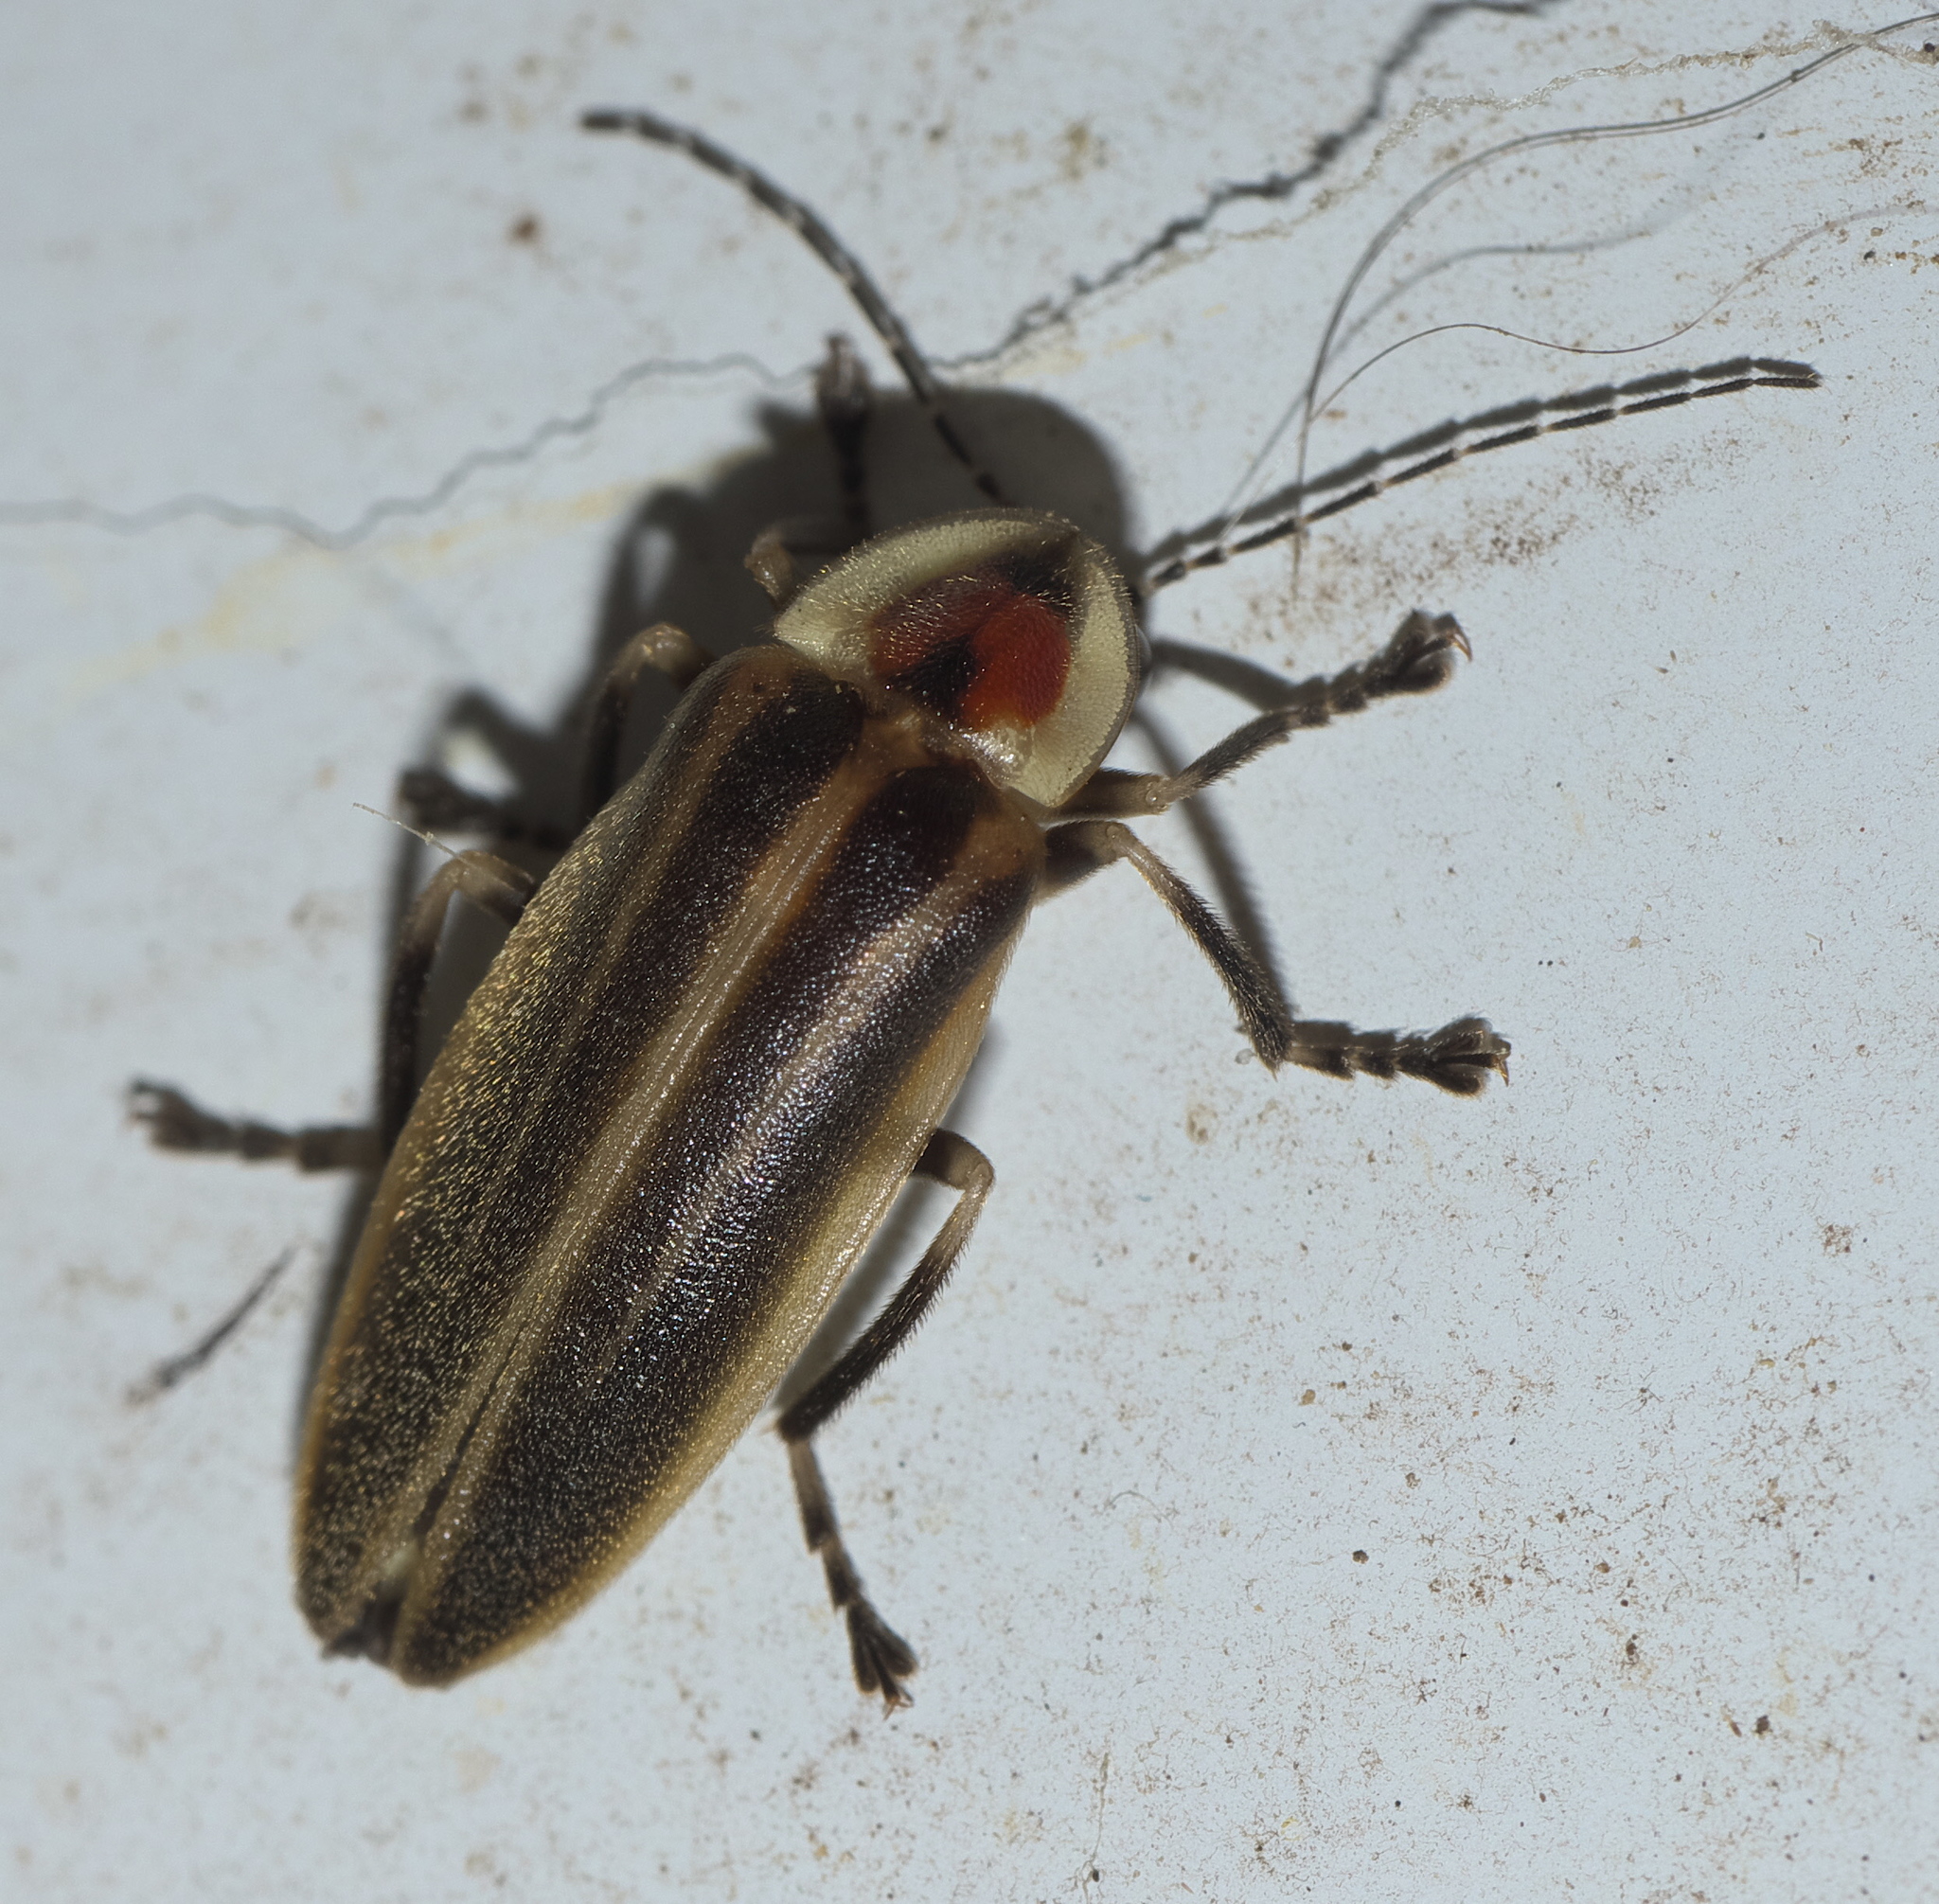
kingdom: Animalia
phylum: Arthropoda
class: Insecta
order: Coleoptera
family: Lampyridae
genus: Photuris
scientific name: Photuris
